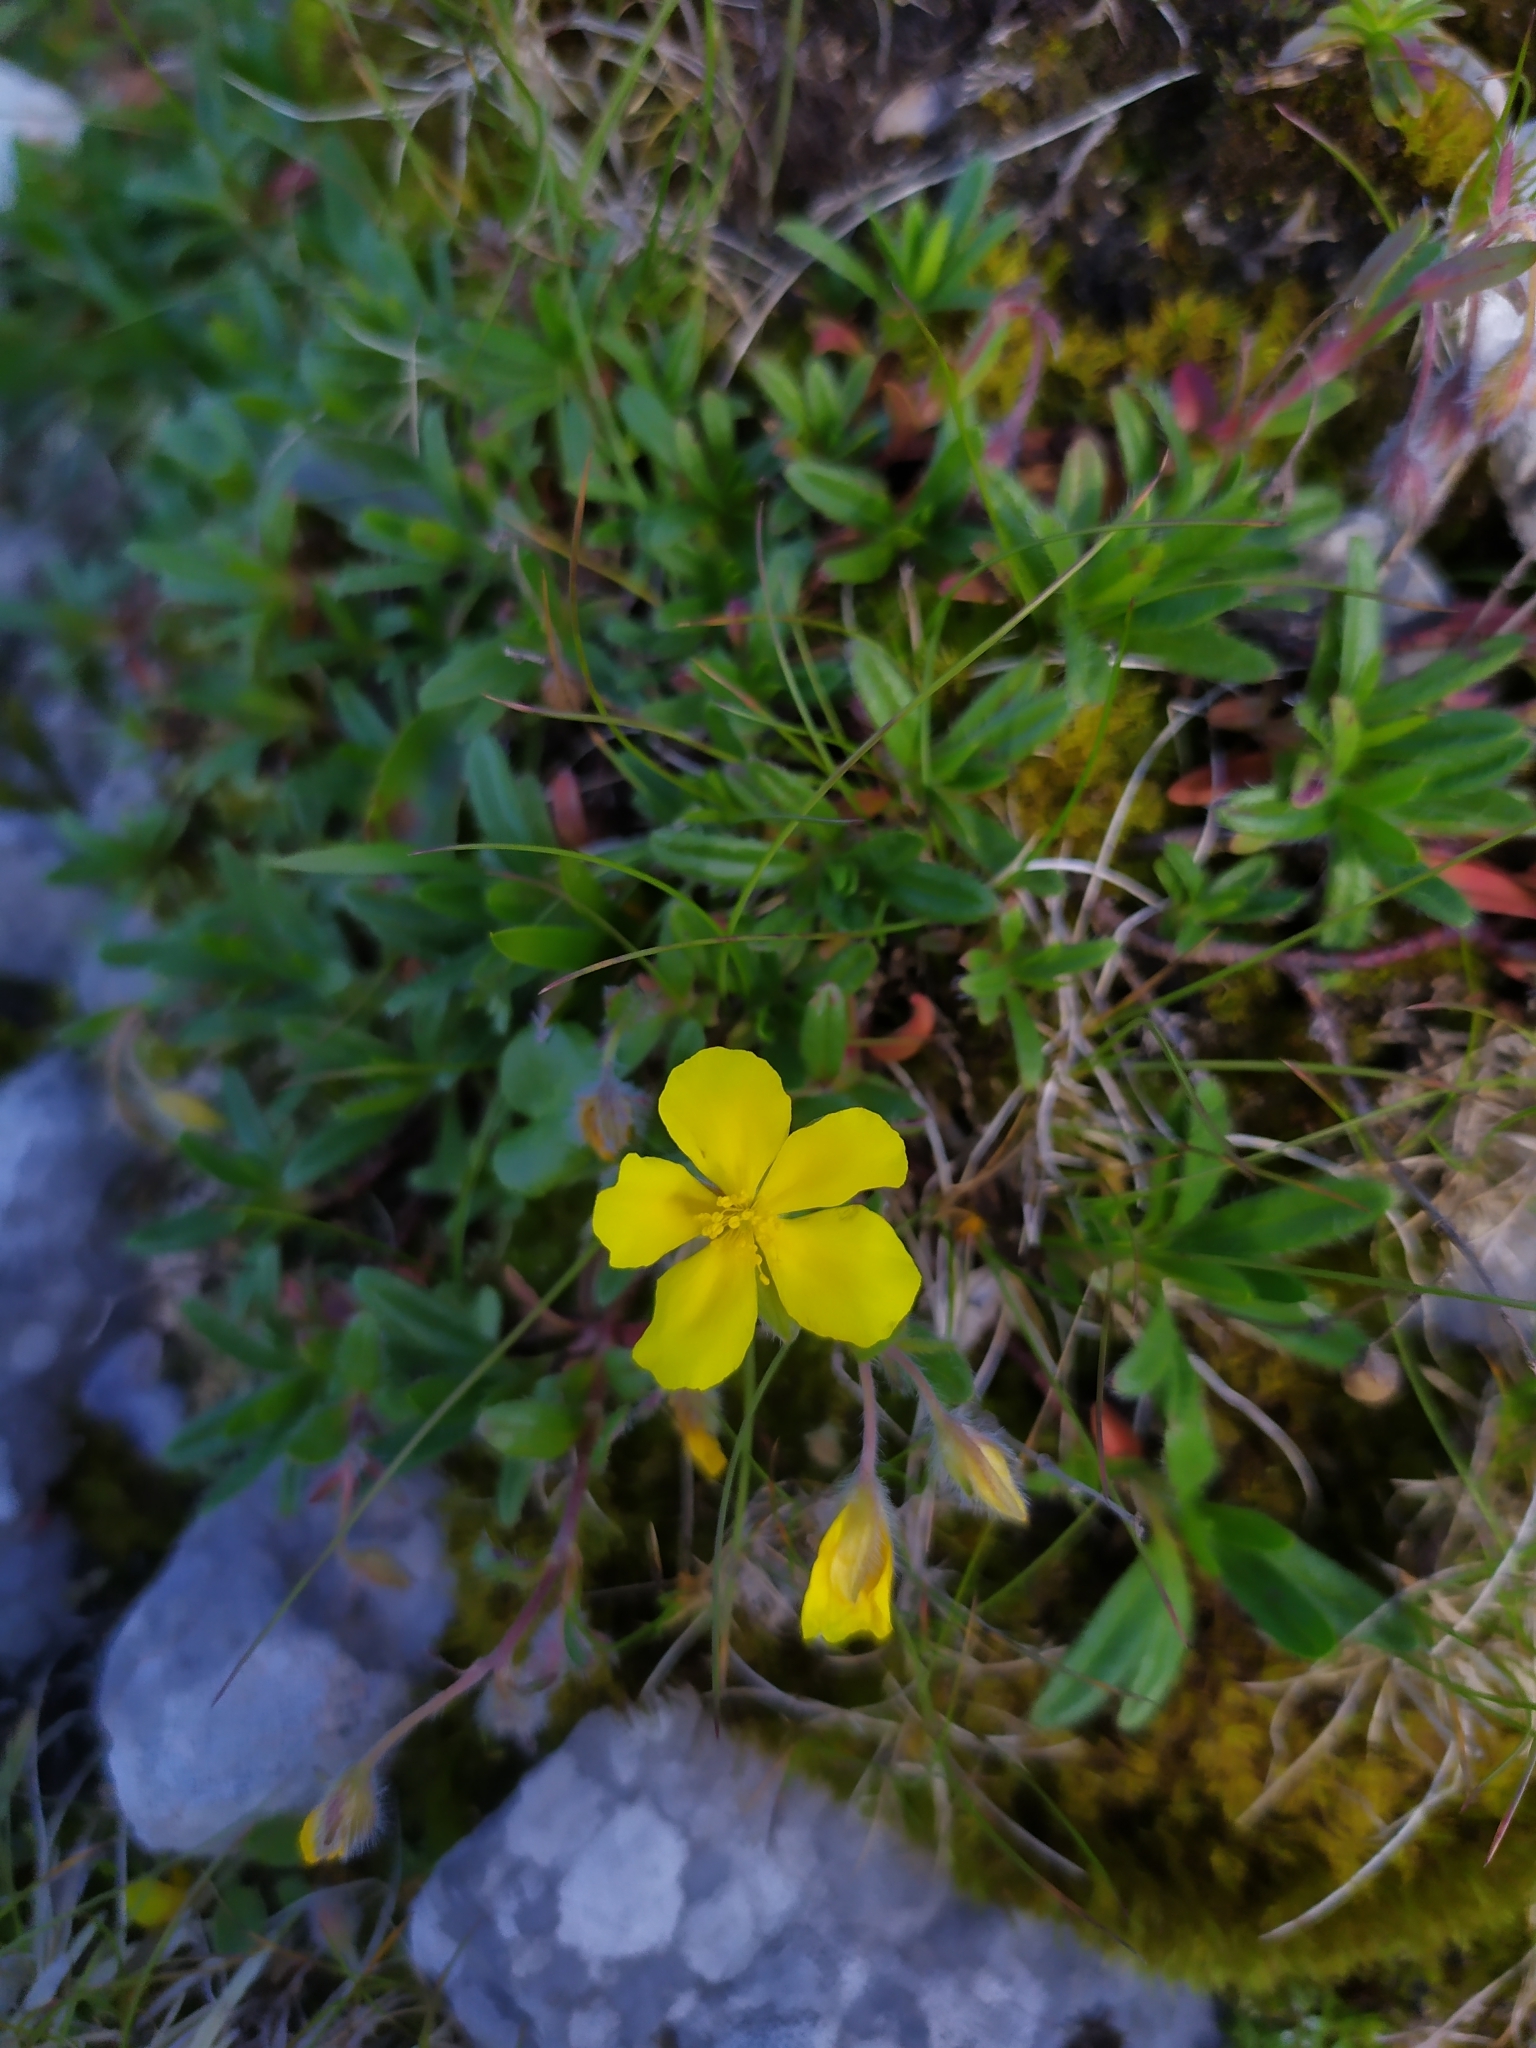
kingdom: Plantae
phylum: Tracheophyta
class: Magnoliopsida
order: Malvales
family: Cistaceae
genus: Helianthemum
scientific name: Helianthemum alpestre
